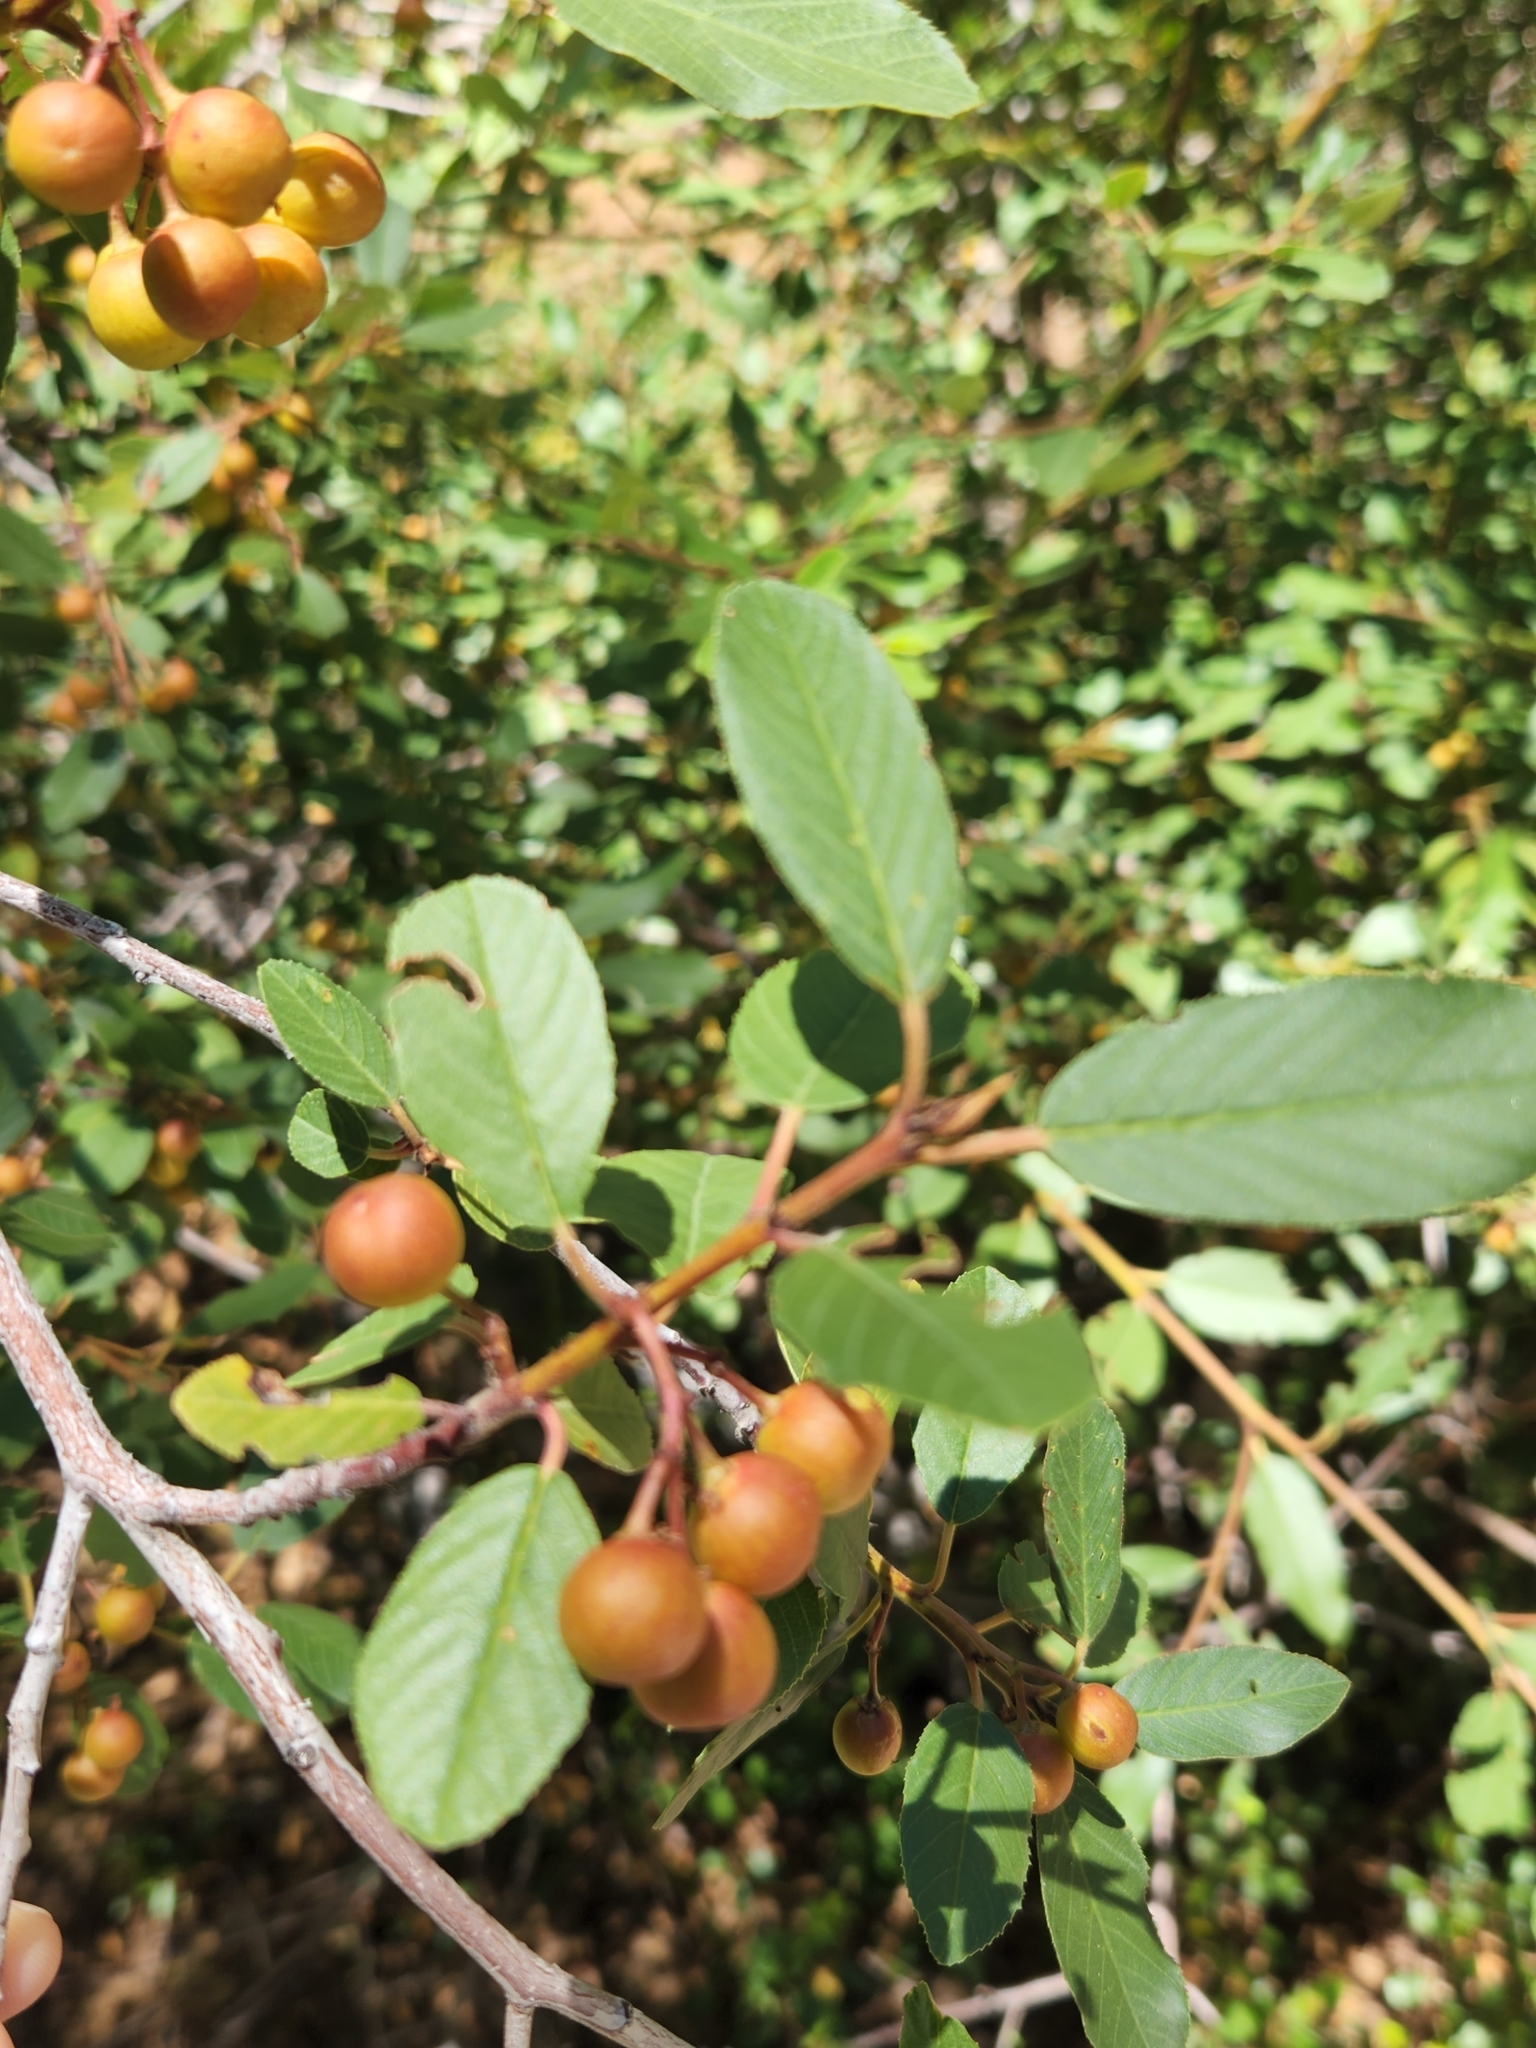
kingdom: Plantae
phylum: Tracheophyta
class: Magnoliopsida
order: Rosales
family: Rhamnaceae
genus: Frangula
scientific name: Frangula californica
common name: California buckthorn
